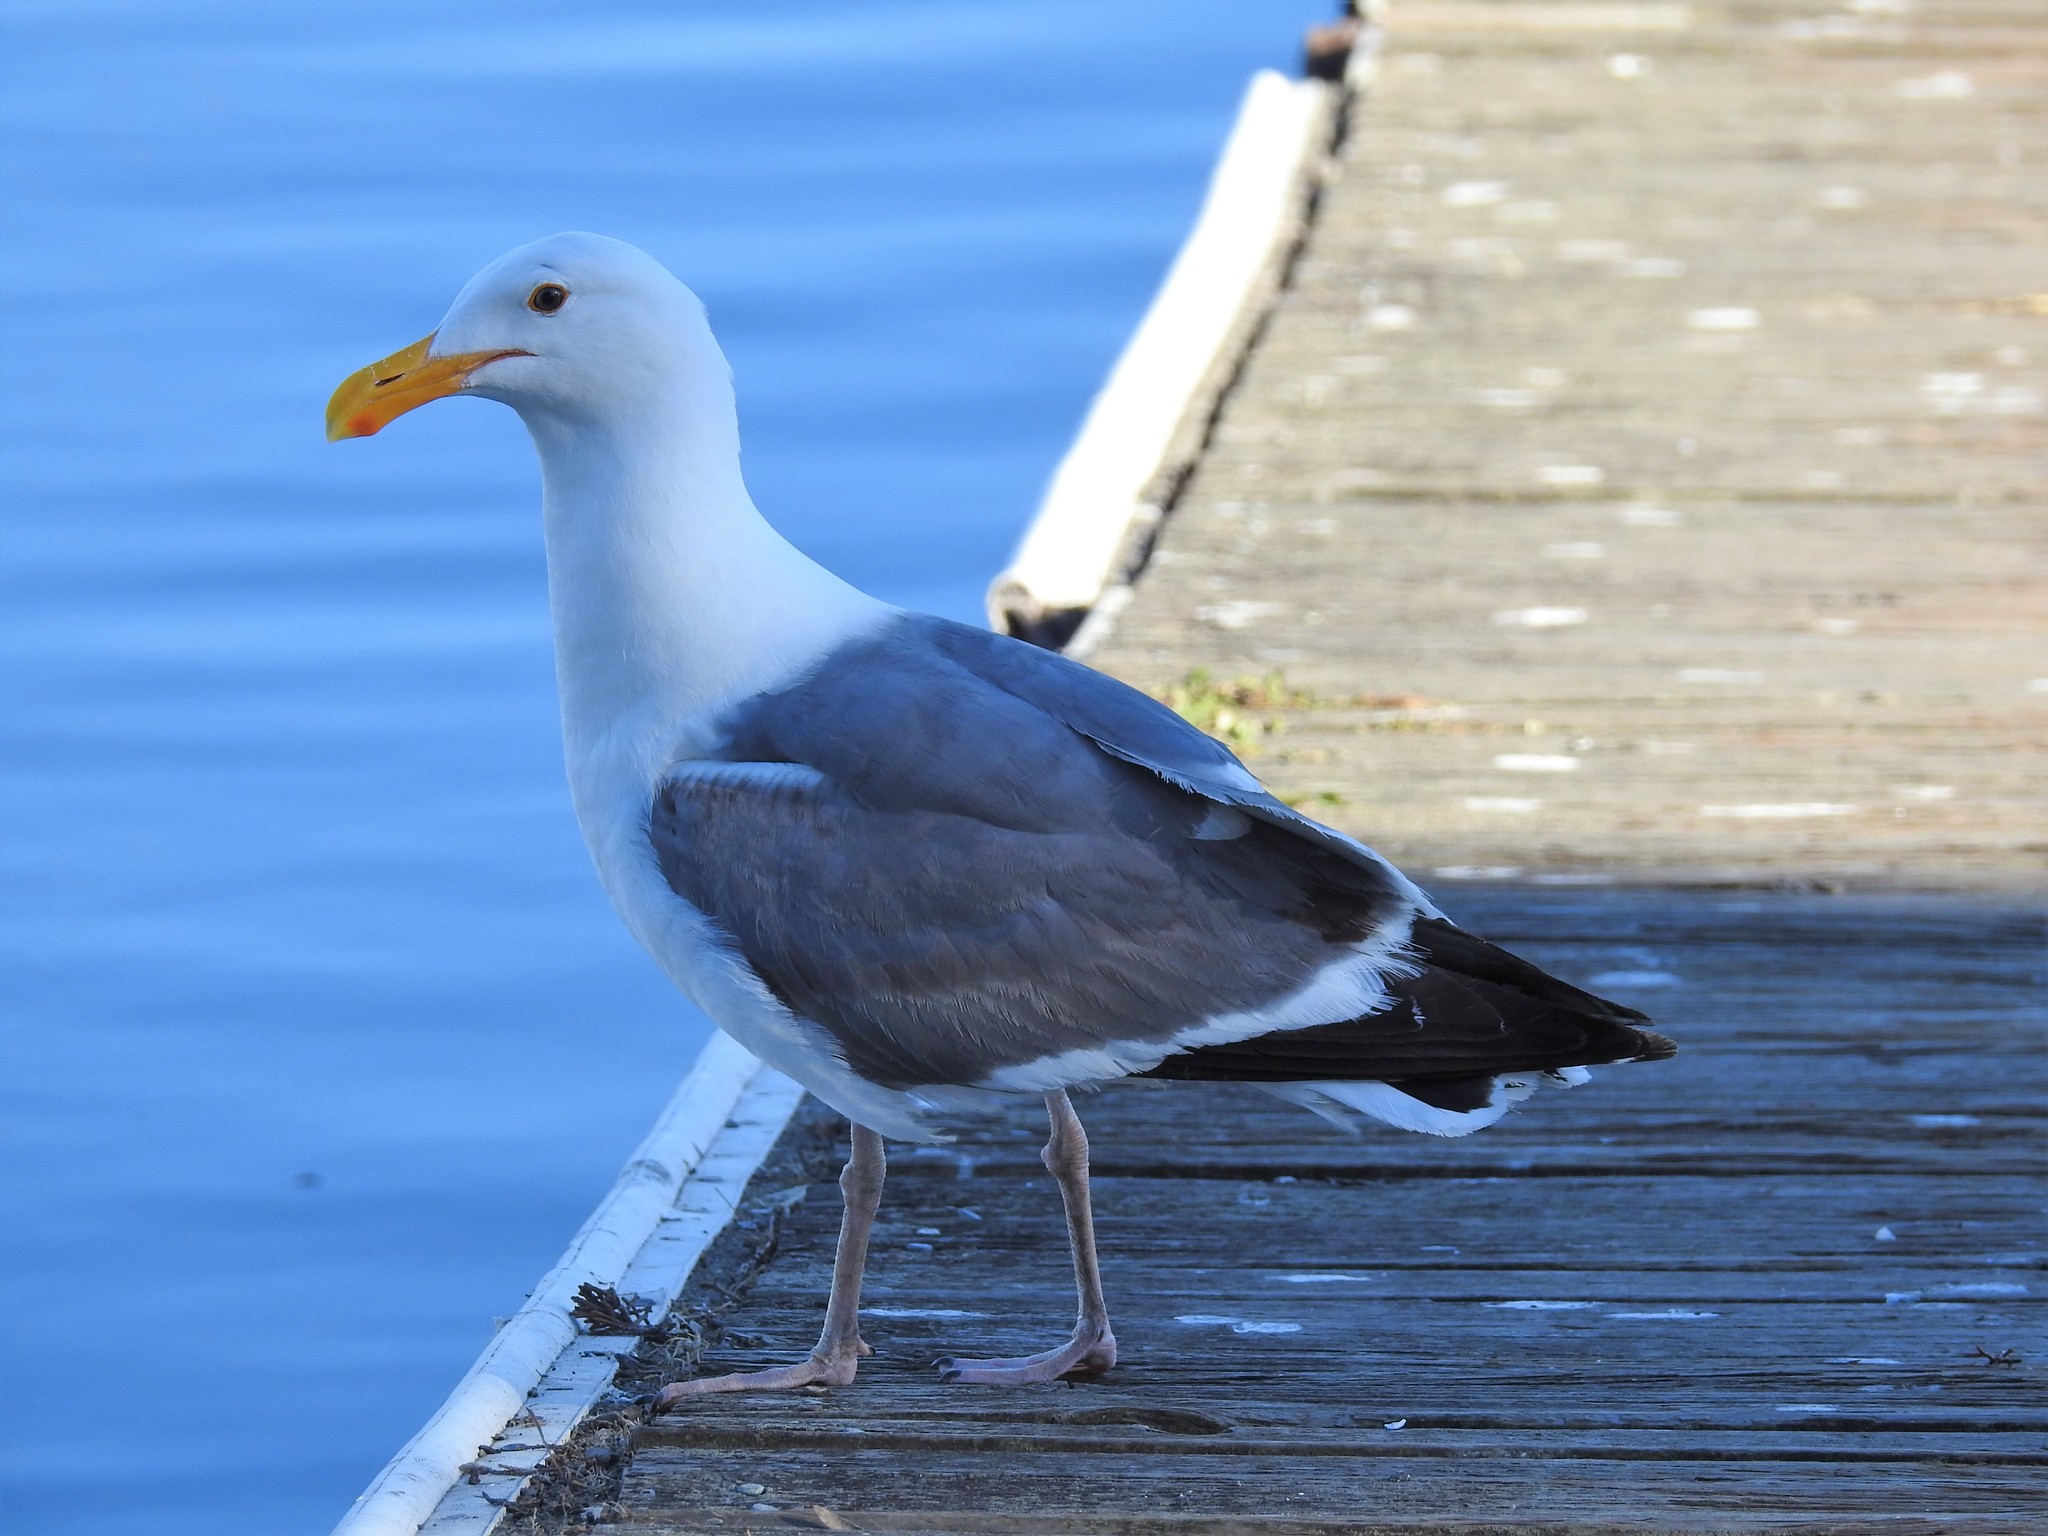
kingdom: Animalia
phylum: Chordata
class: Aves
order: Charadriiformes
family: Laridae
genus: Larus
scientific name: Larus occidentalis
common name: Western gull
